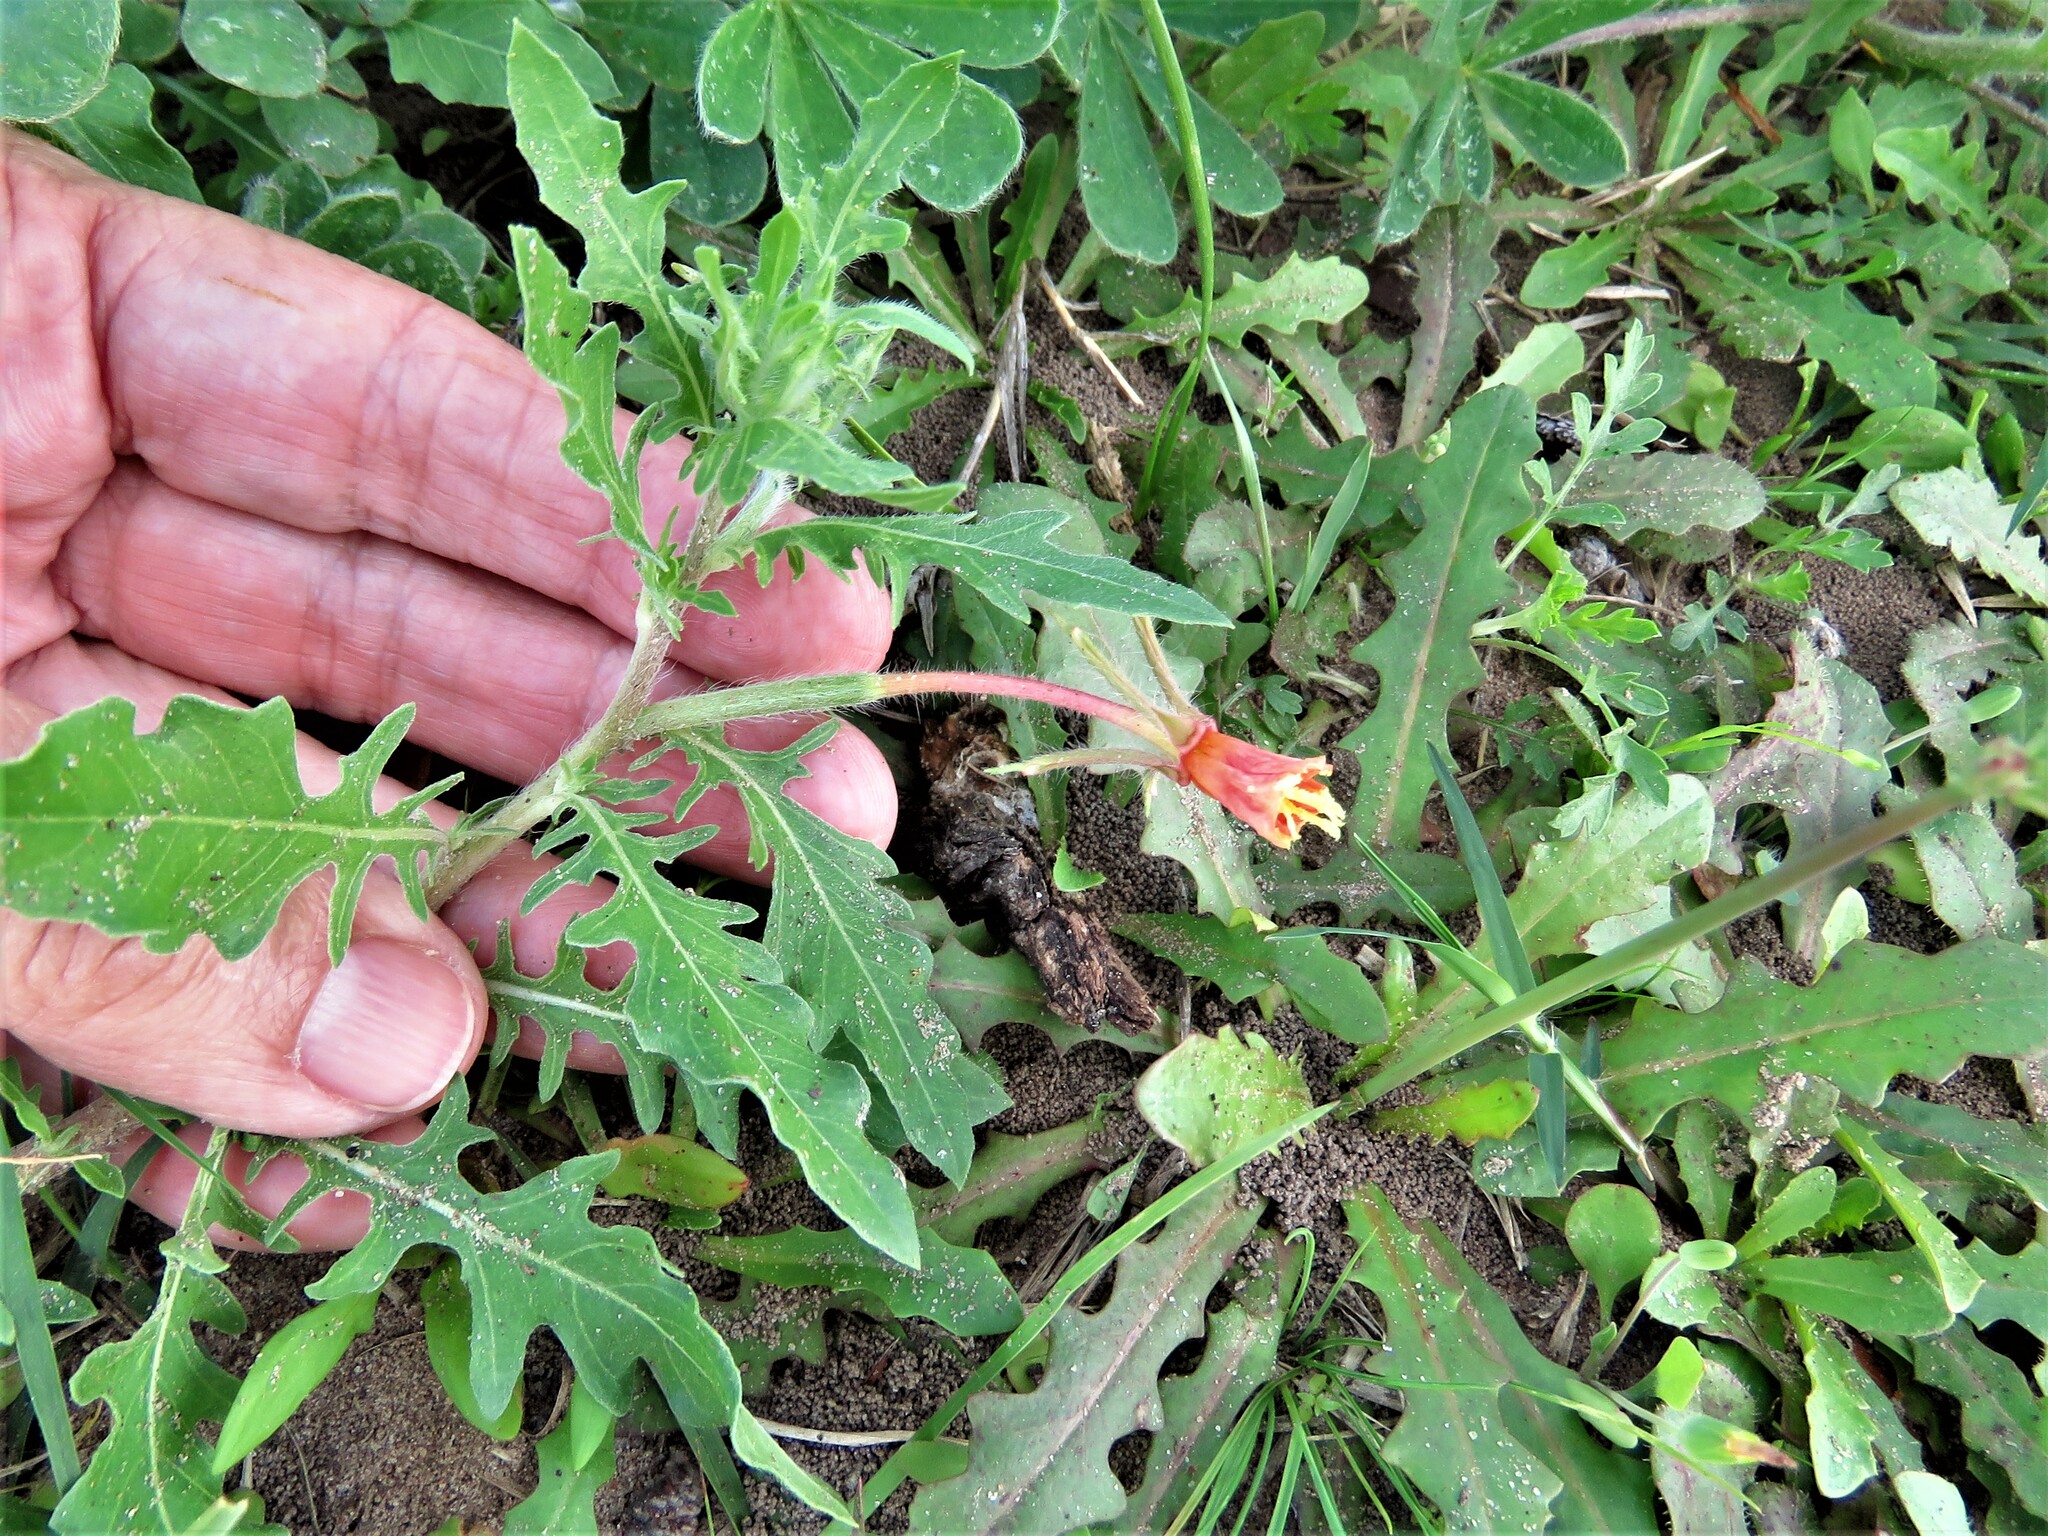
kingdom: Plantae
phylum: Tracheophyta
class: Magnoliopsida
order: Myrtales
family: Onagraceae
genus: Oenothera
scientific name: Oenothera laciniata
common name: Cut-leaved evening-primrose
